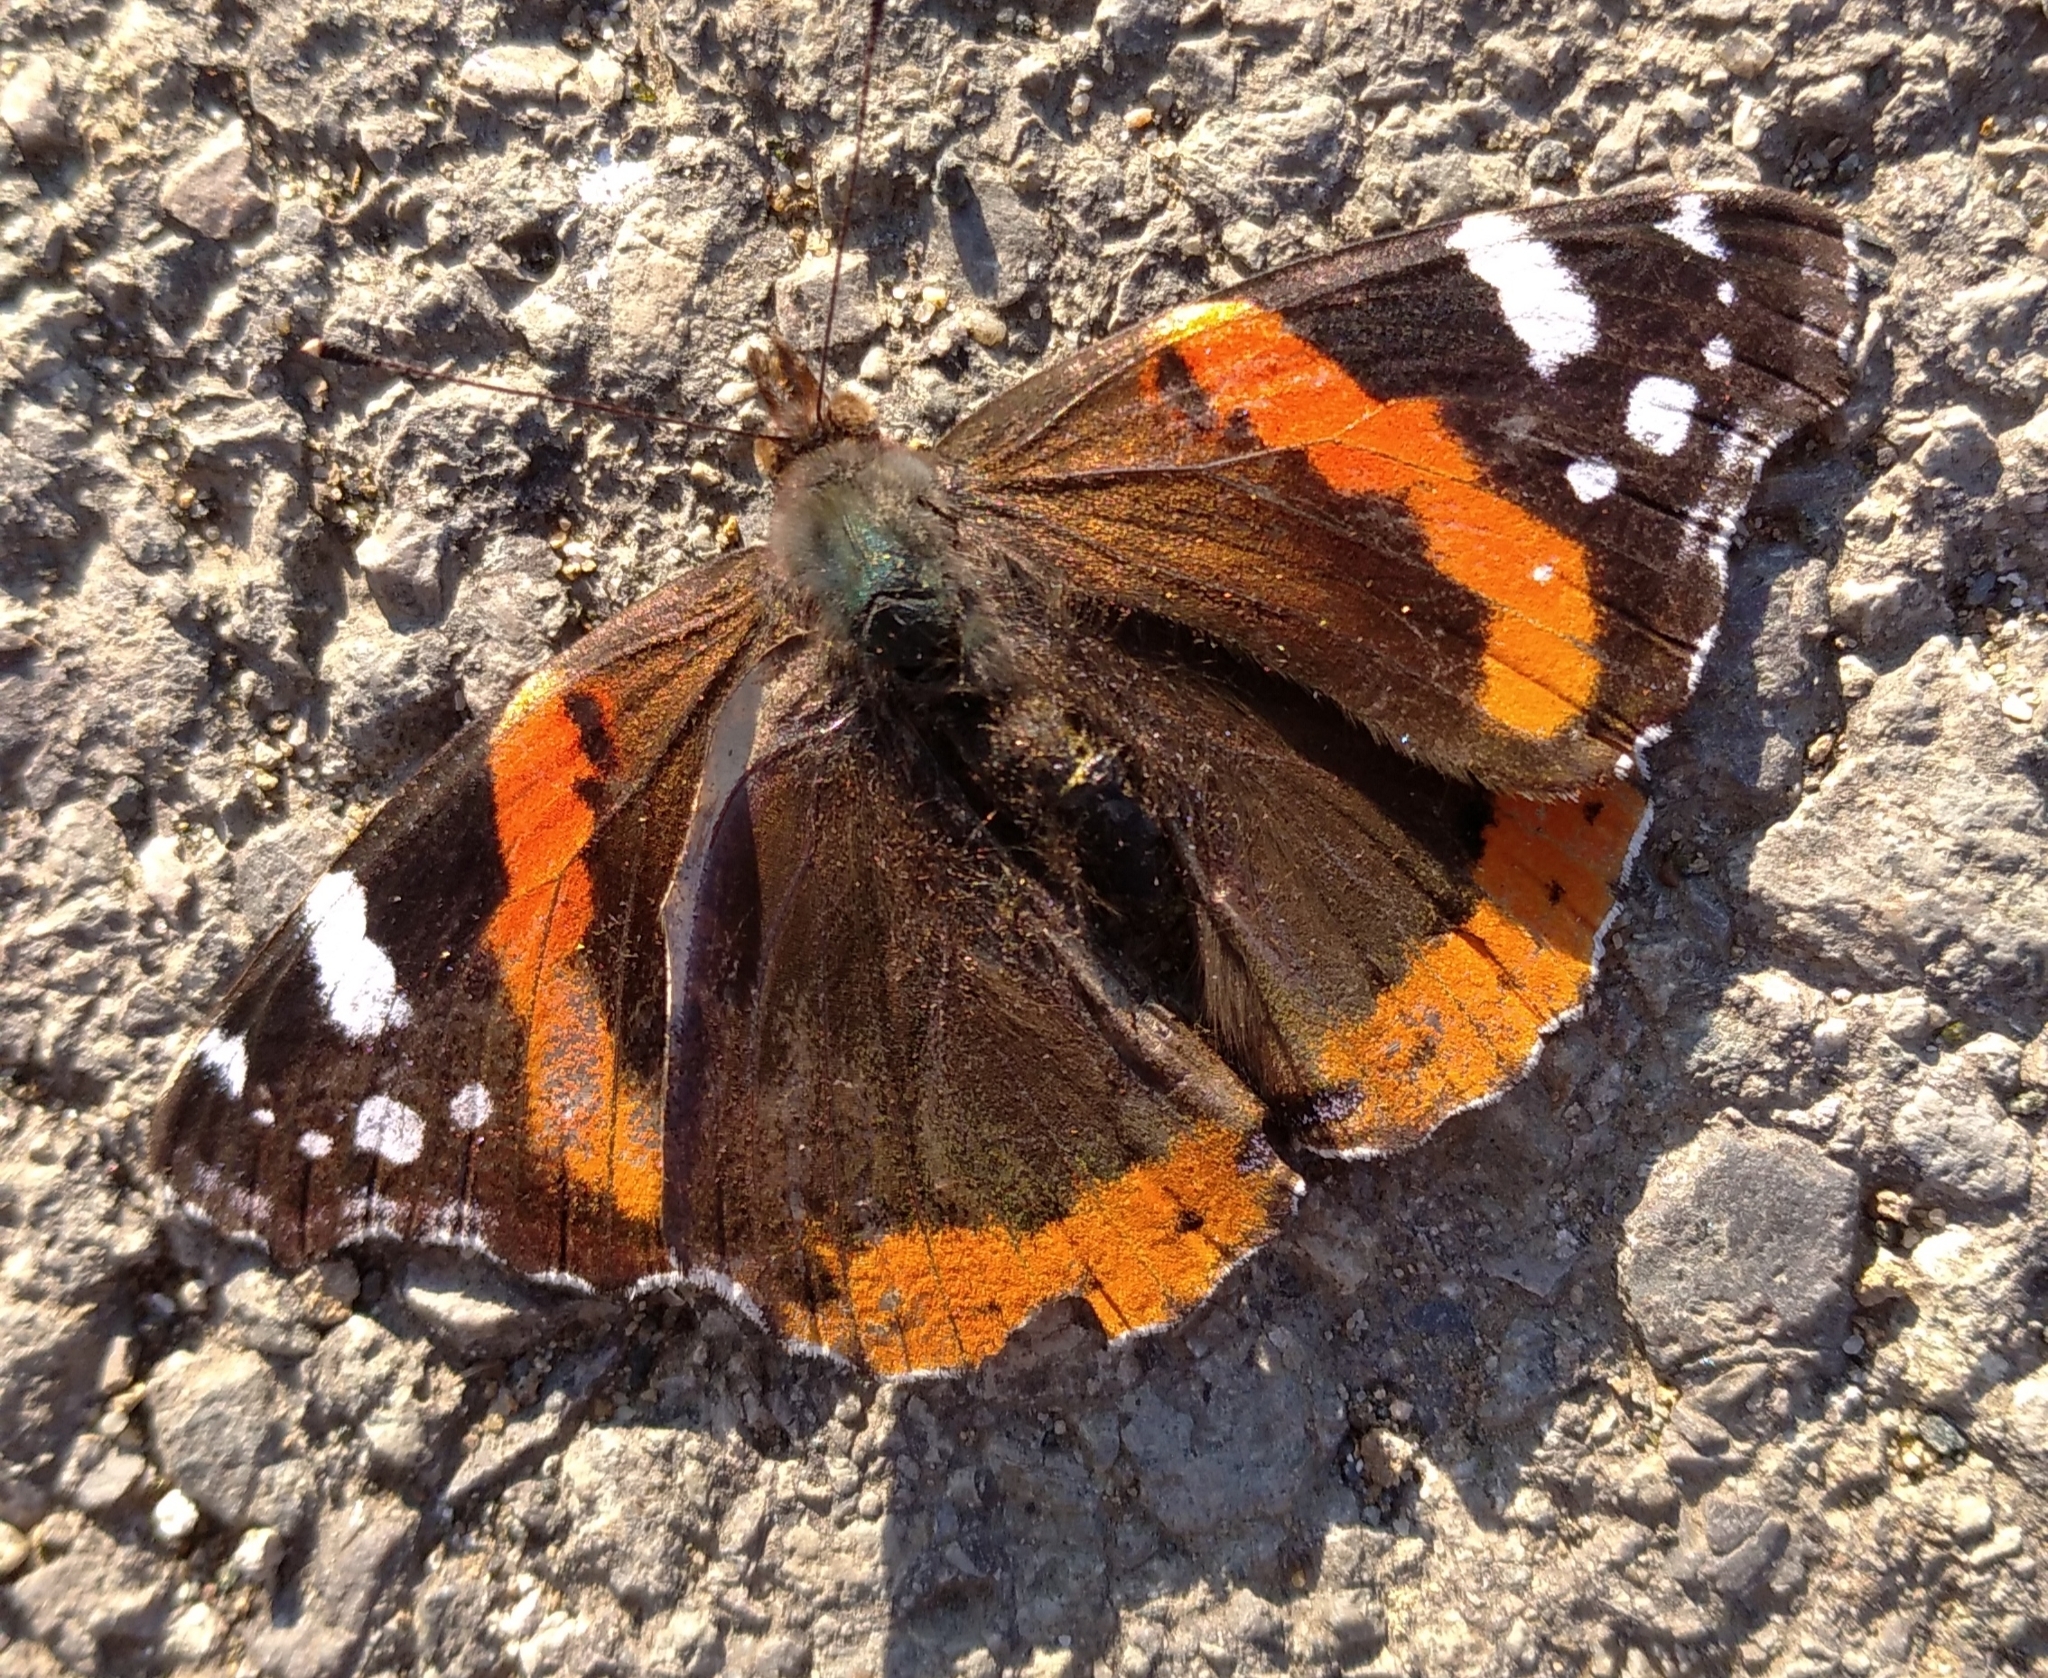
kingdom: Animalia
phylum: Arthropoda
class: Insecta
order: Lepidoptera
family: Nymphalidae
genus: Vanessa
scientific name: Vanessa atalanta
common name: Red admiral
